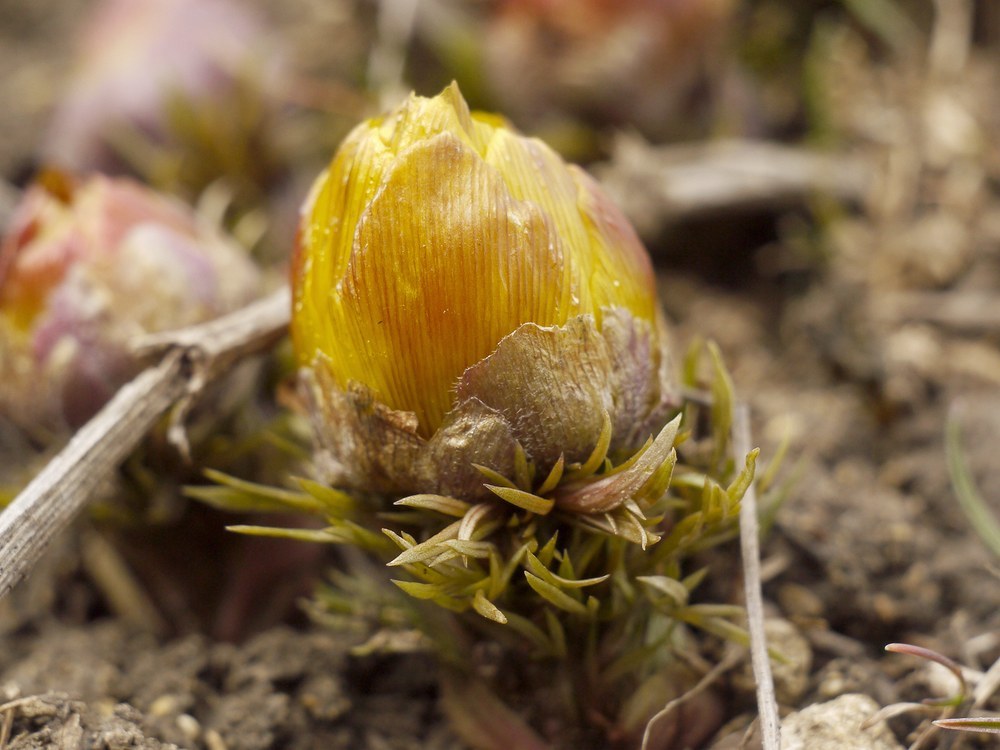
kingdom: Plantae
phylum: Tracheophyta
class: Magnoliopsida
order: Ranunculales
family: Ranunculaceae
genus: Adonis
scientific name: Adonis vernalis
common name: Yellow pheasants-eye
